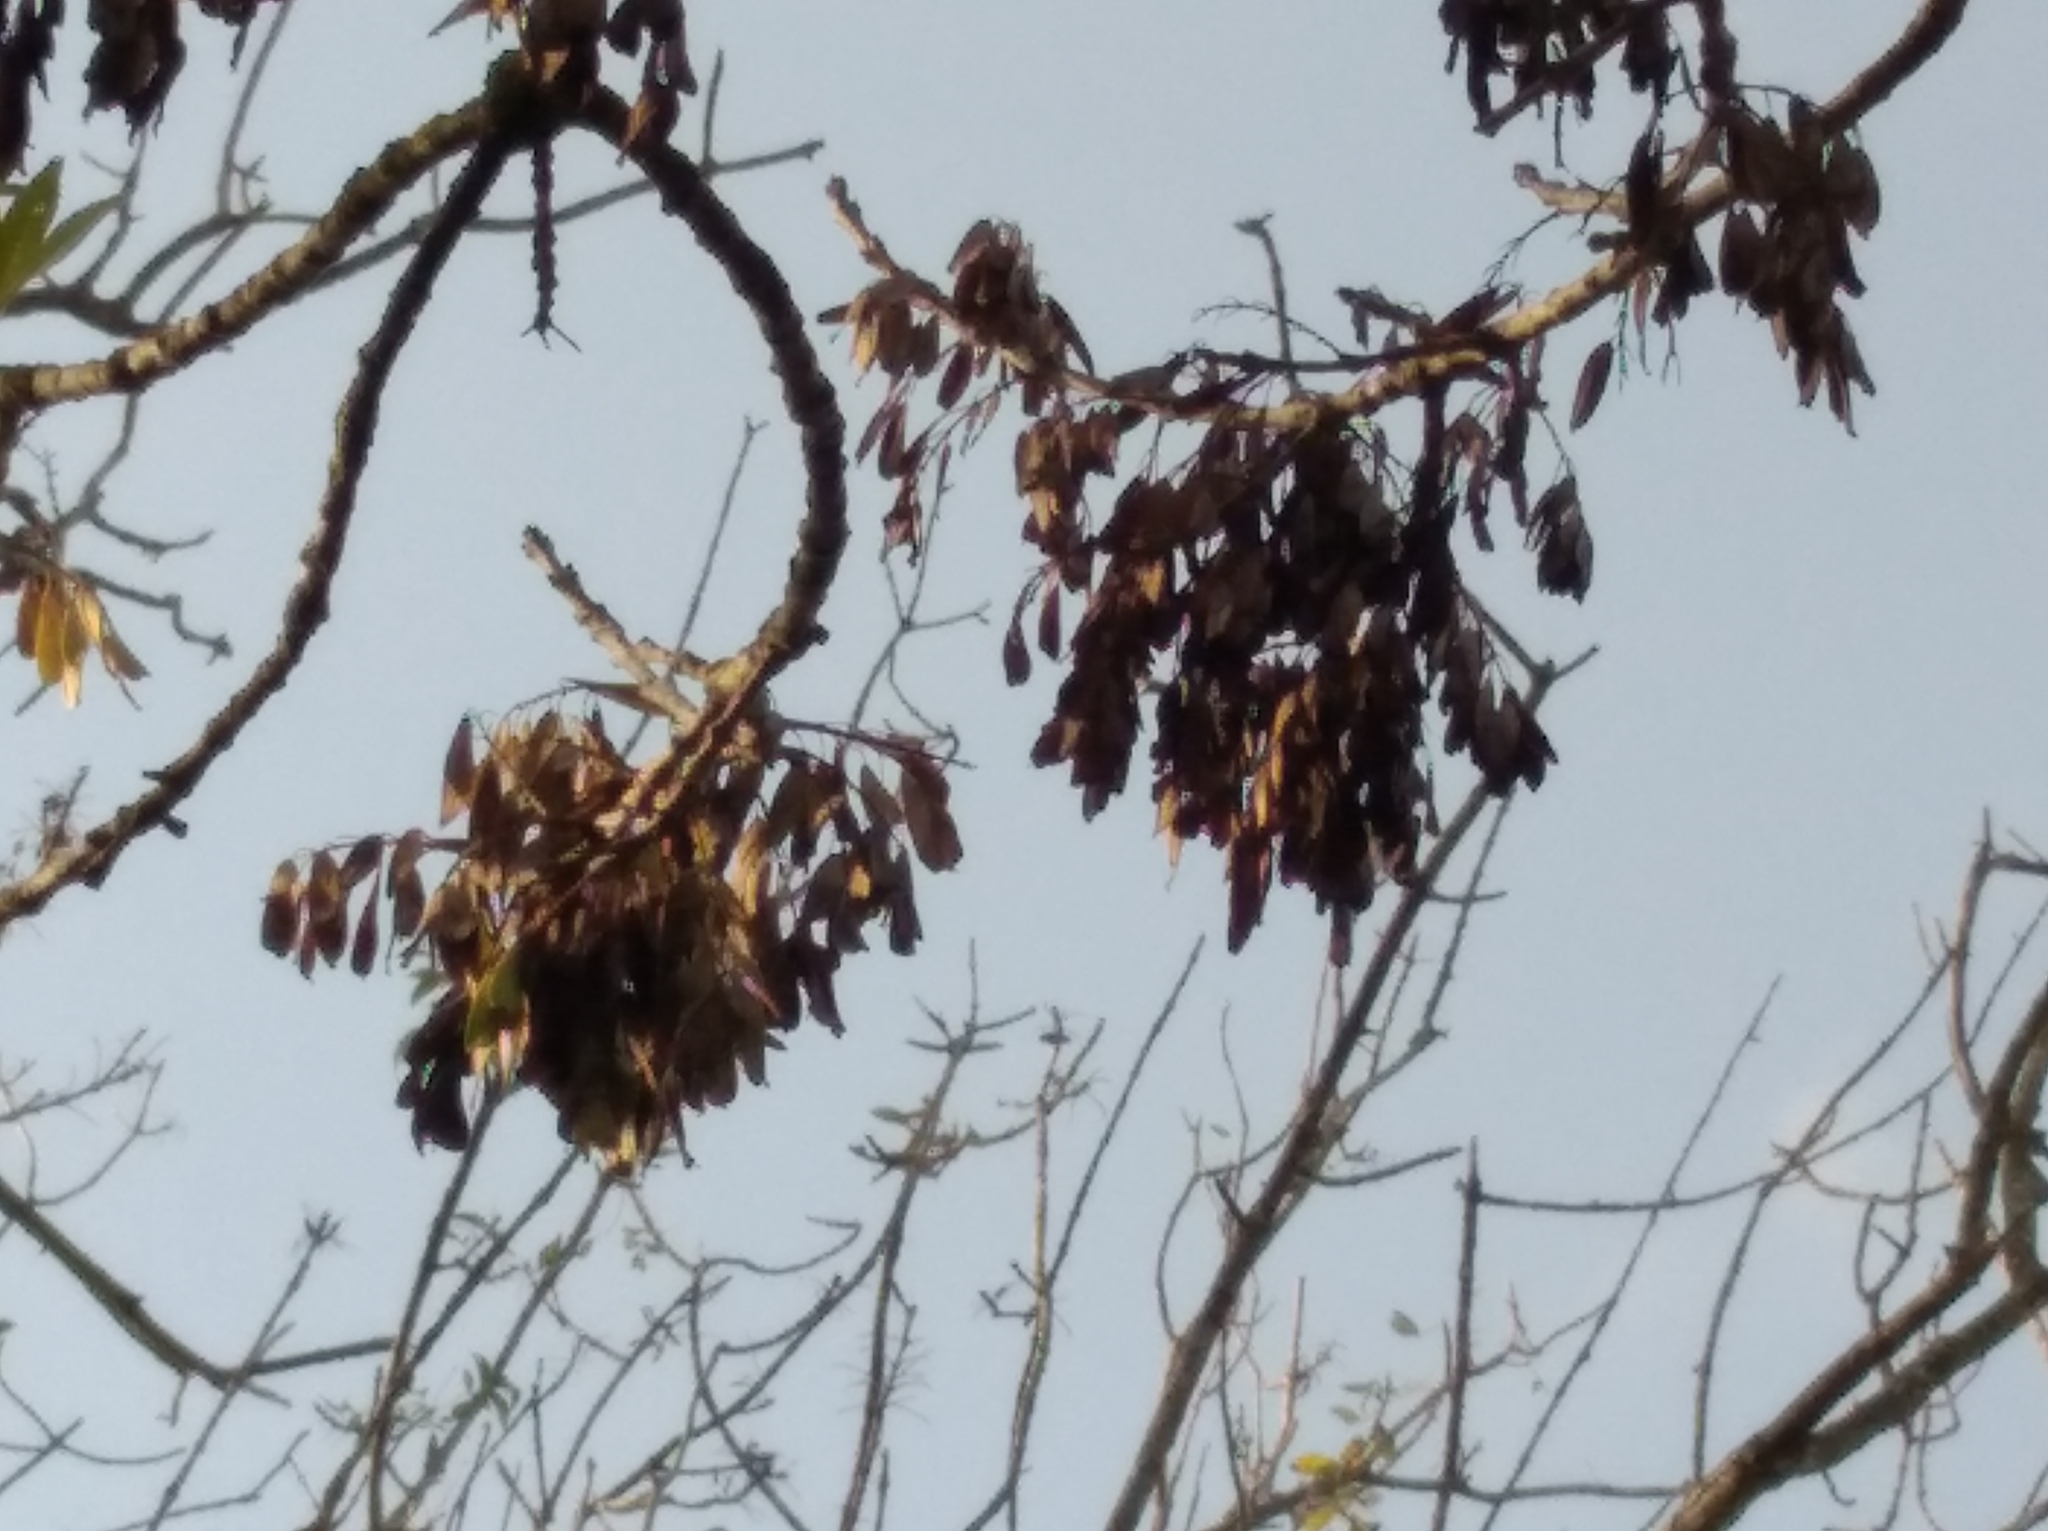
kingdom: Plantae
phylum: Tracheophyta
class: Magnoliopsida
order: Lamiales
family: Oleaceae
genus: Fraxinus
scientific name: Fraxinus excelsior
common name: European ash
